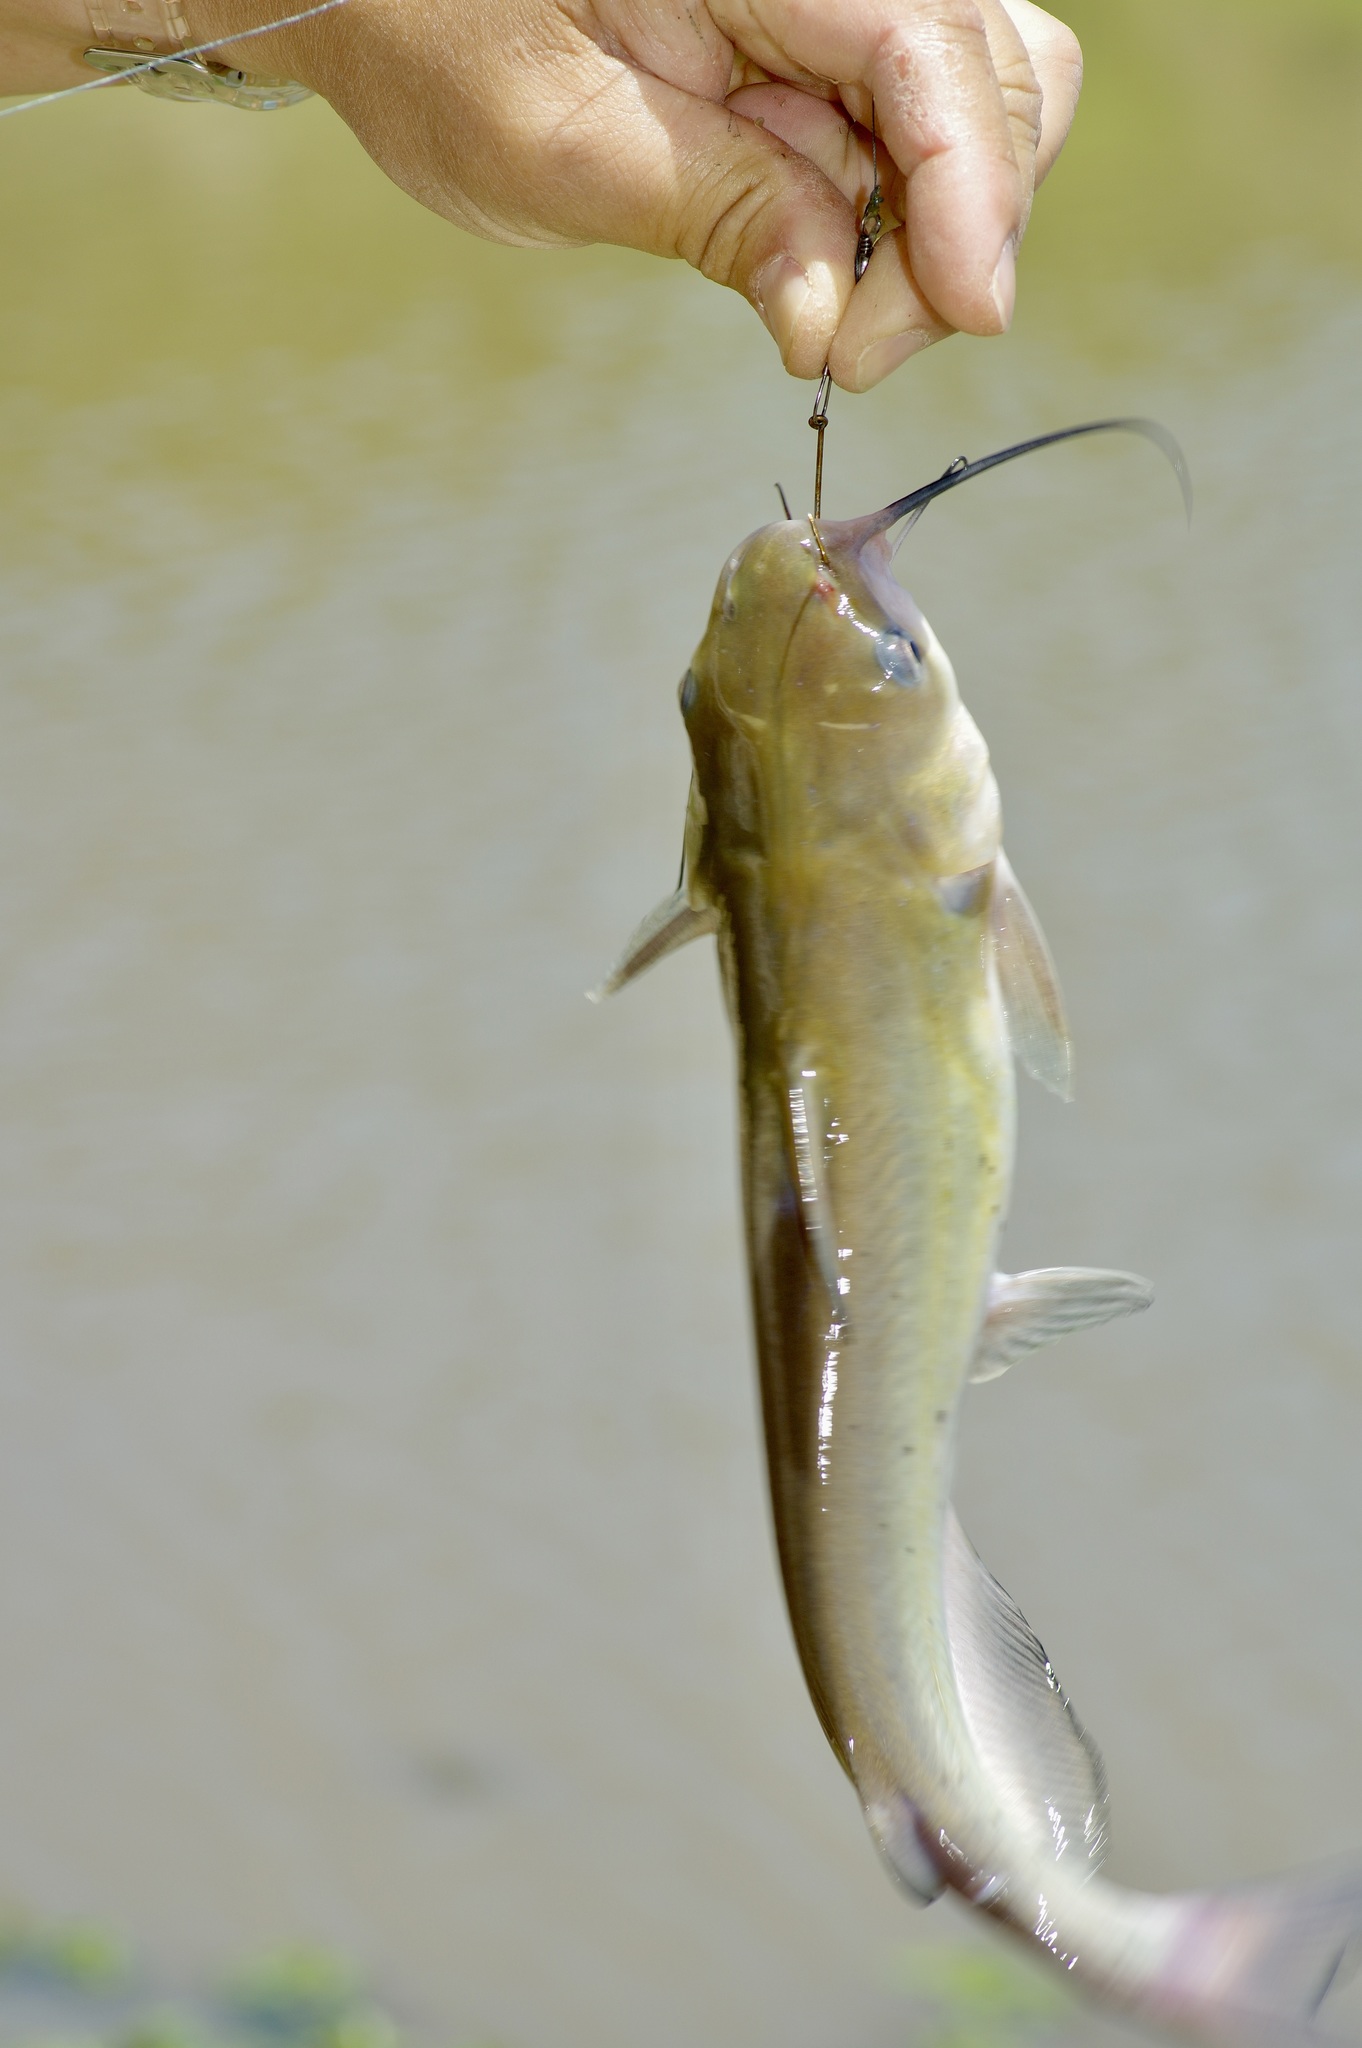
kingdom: Animalia
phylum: Chordata
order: Siluriformes
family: Ictaluridae
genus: Ictalurus
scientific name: Ictalurus punctatus
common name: Channel catfish
